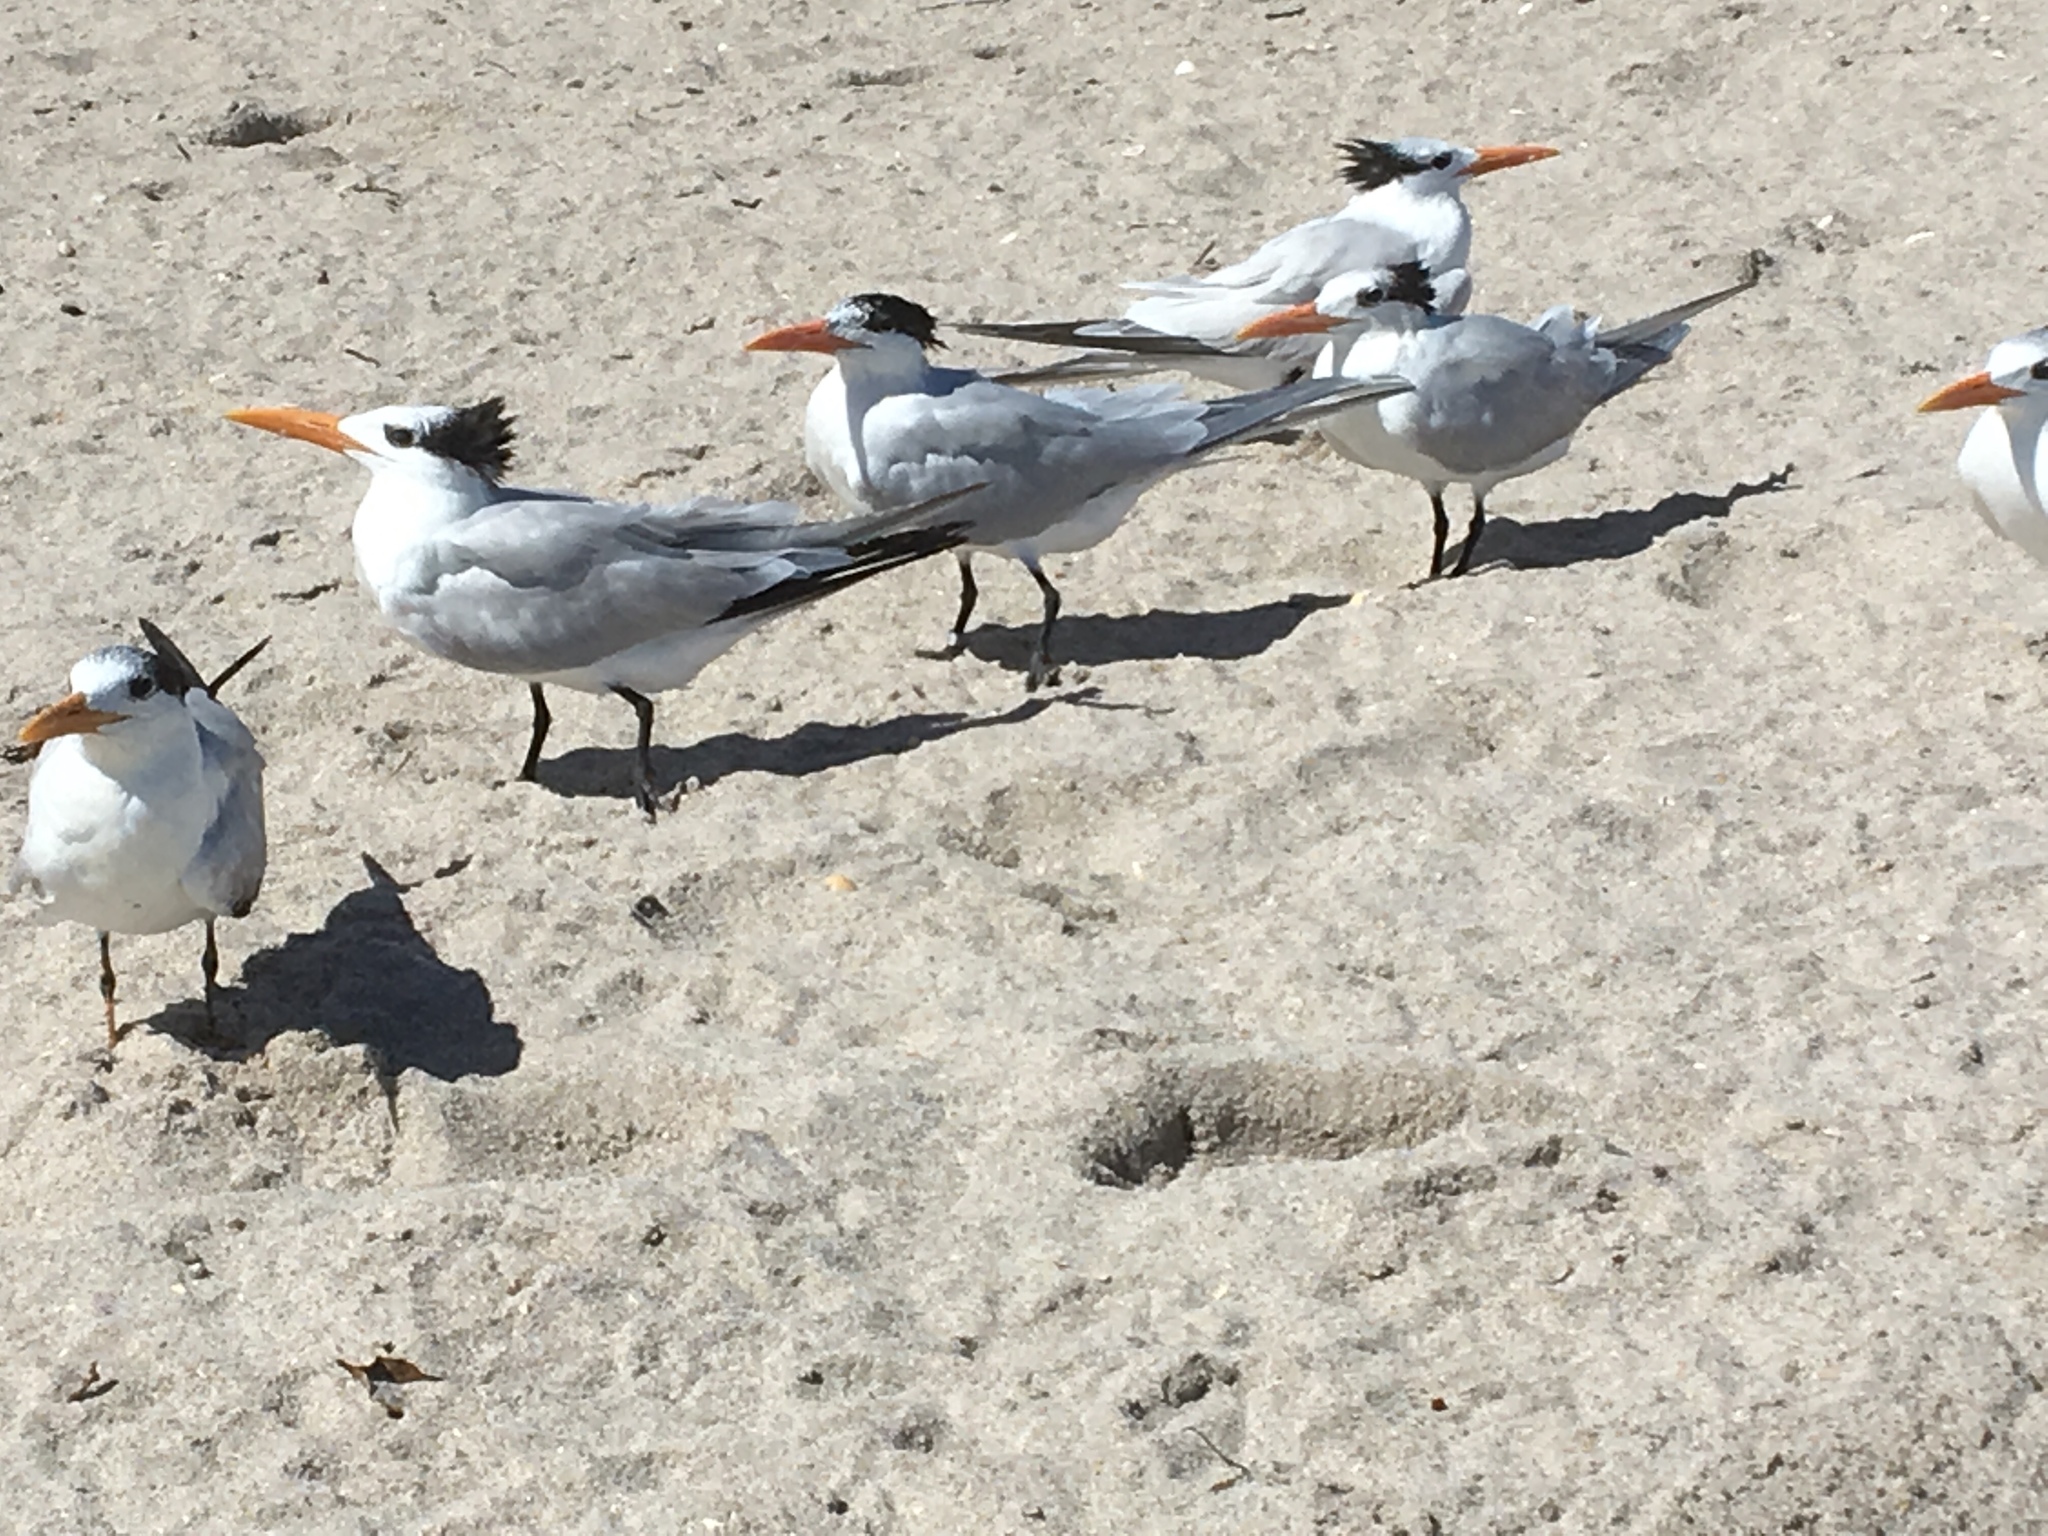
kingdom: Animalia
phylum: Chordata
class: Aves
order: Charadriiformes
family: Laridae
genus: Thalasseus
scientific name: Thalasseus maximus
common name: Royal tern
